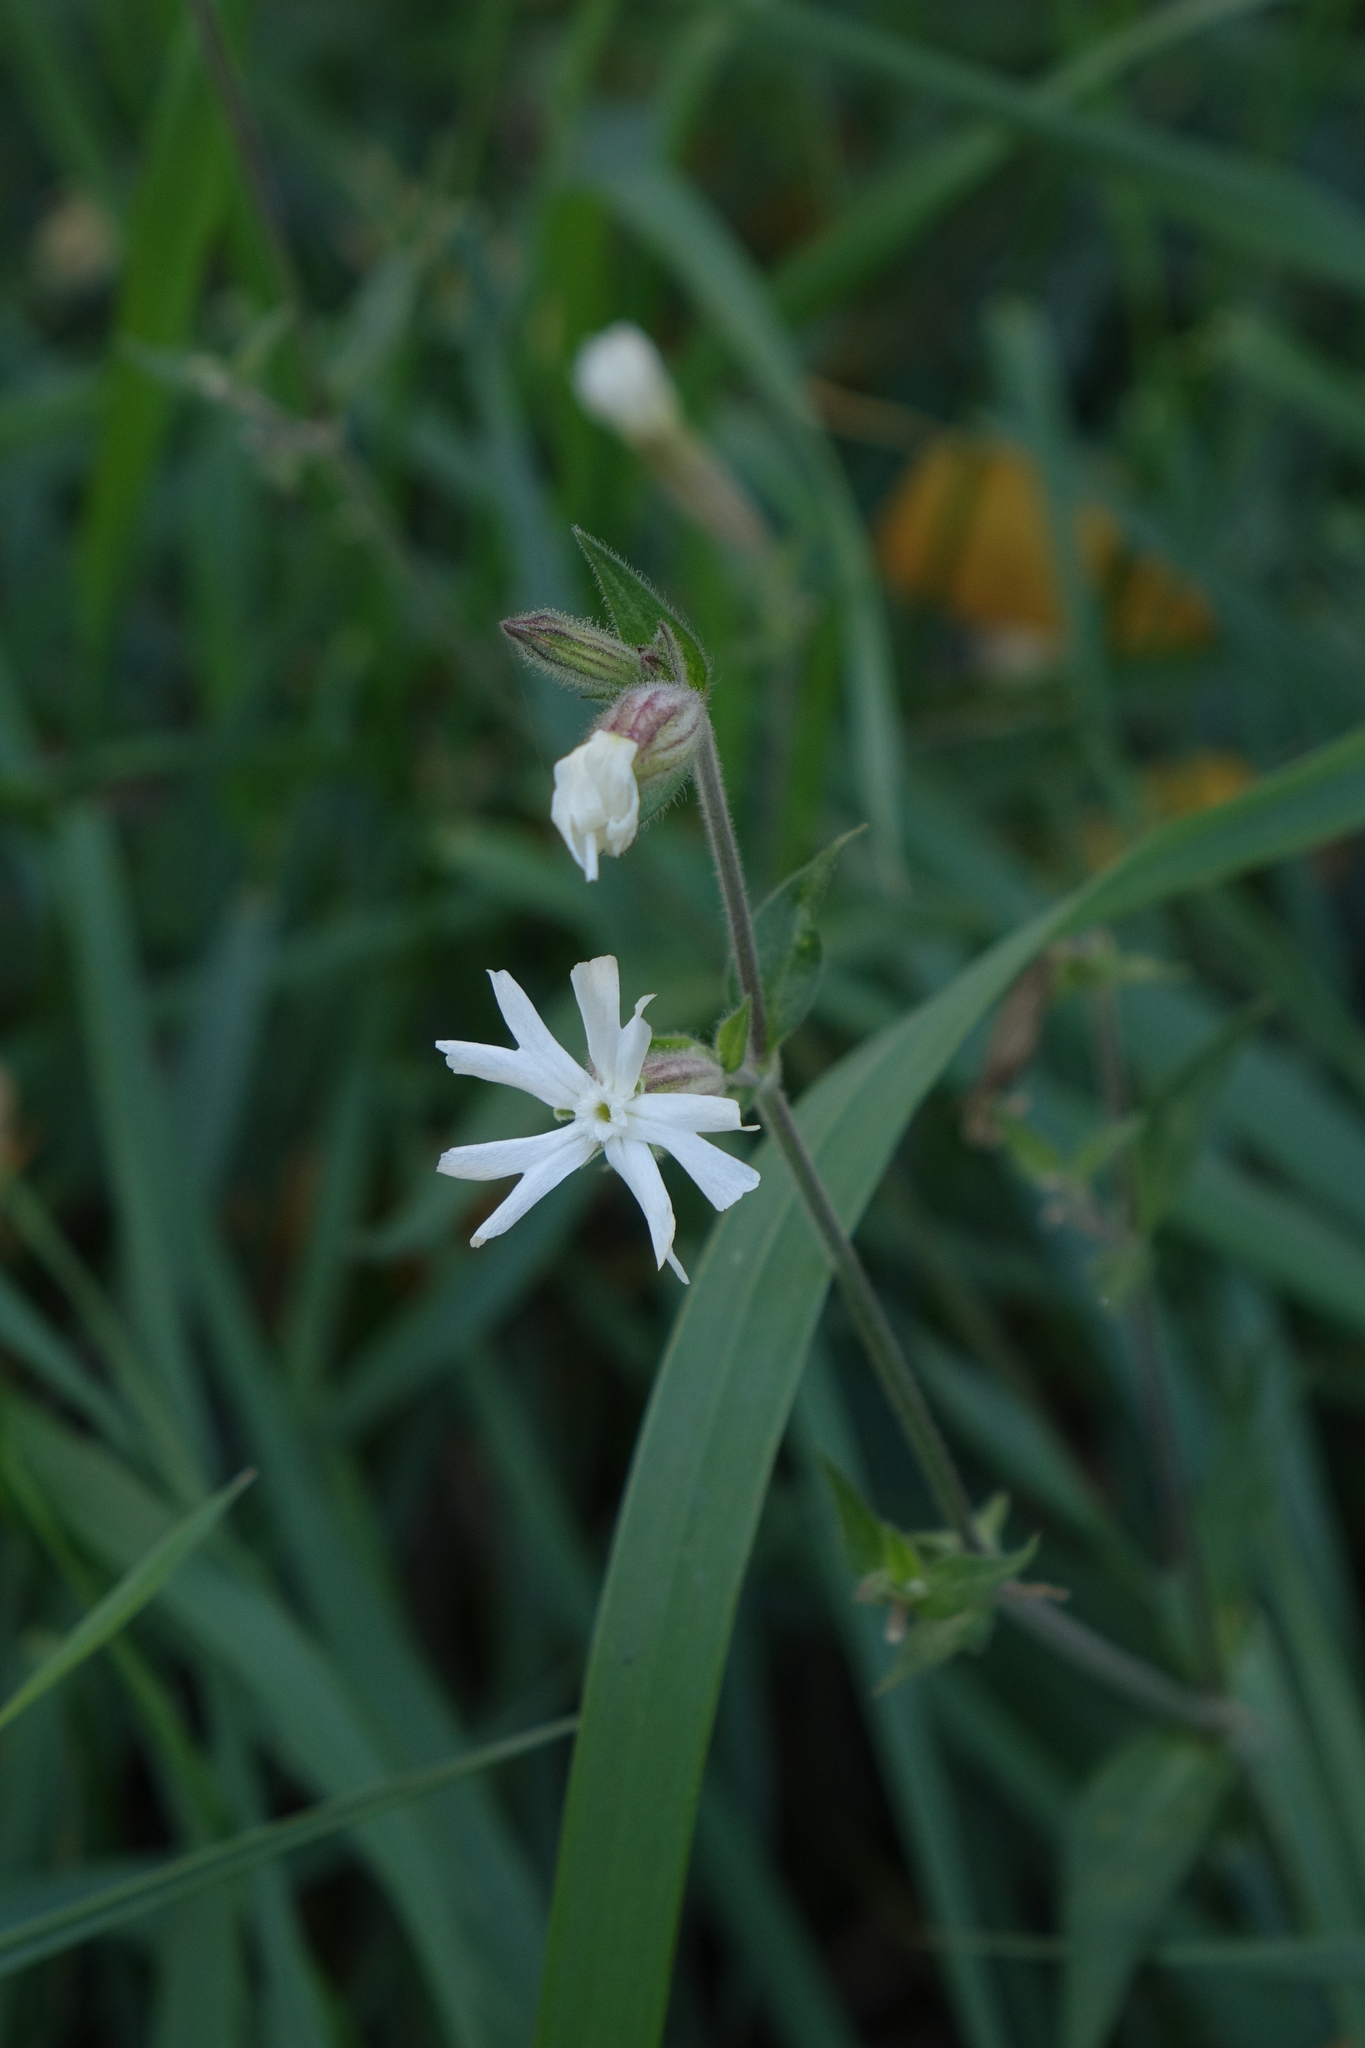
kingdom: Plantae
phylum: Tracheophyta
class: Magnoliopsida
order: Caryophyllales
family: Caryophyllaceae
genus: Silene
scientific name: Silene latifolia
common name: White campion
